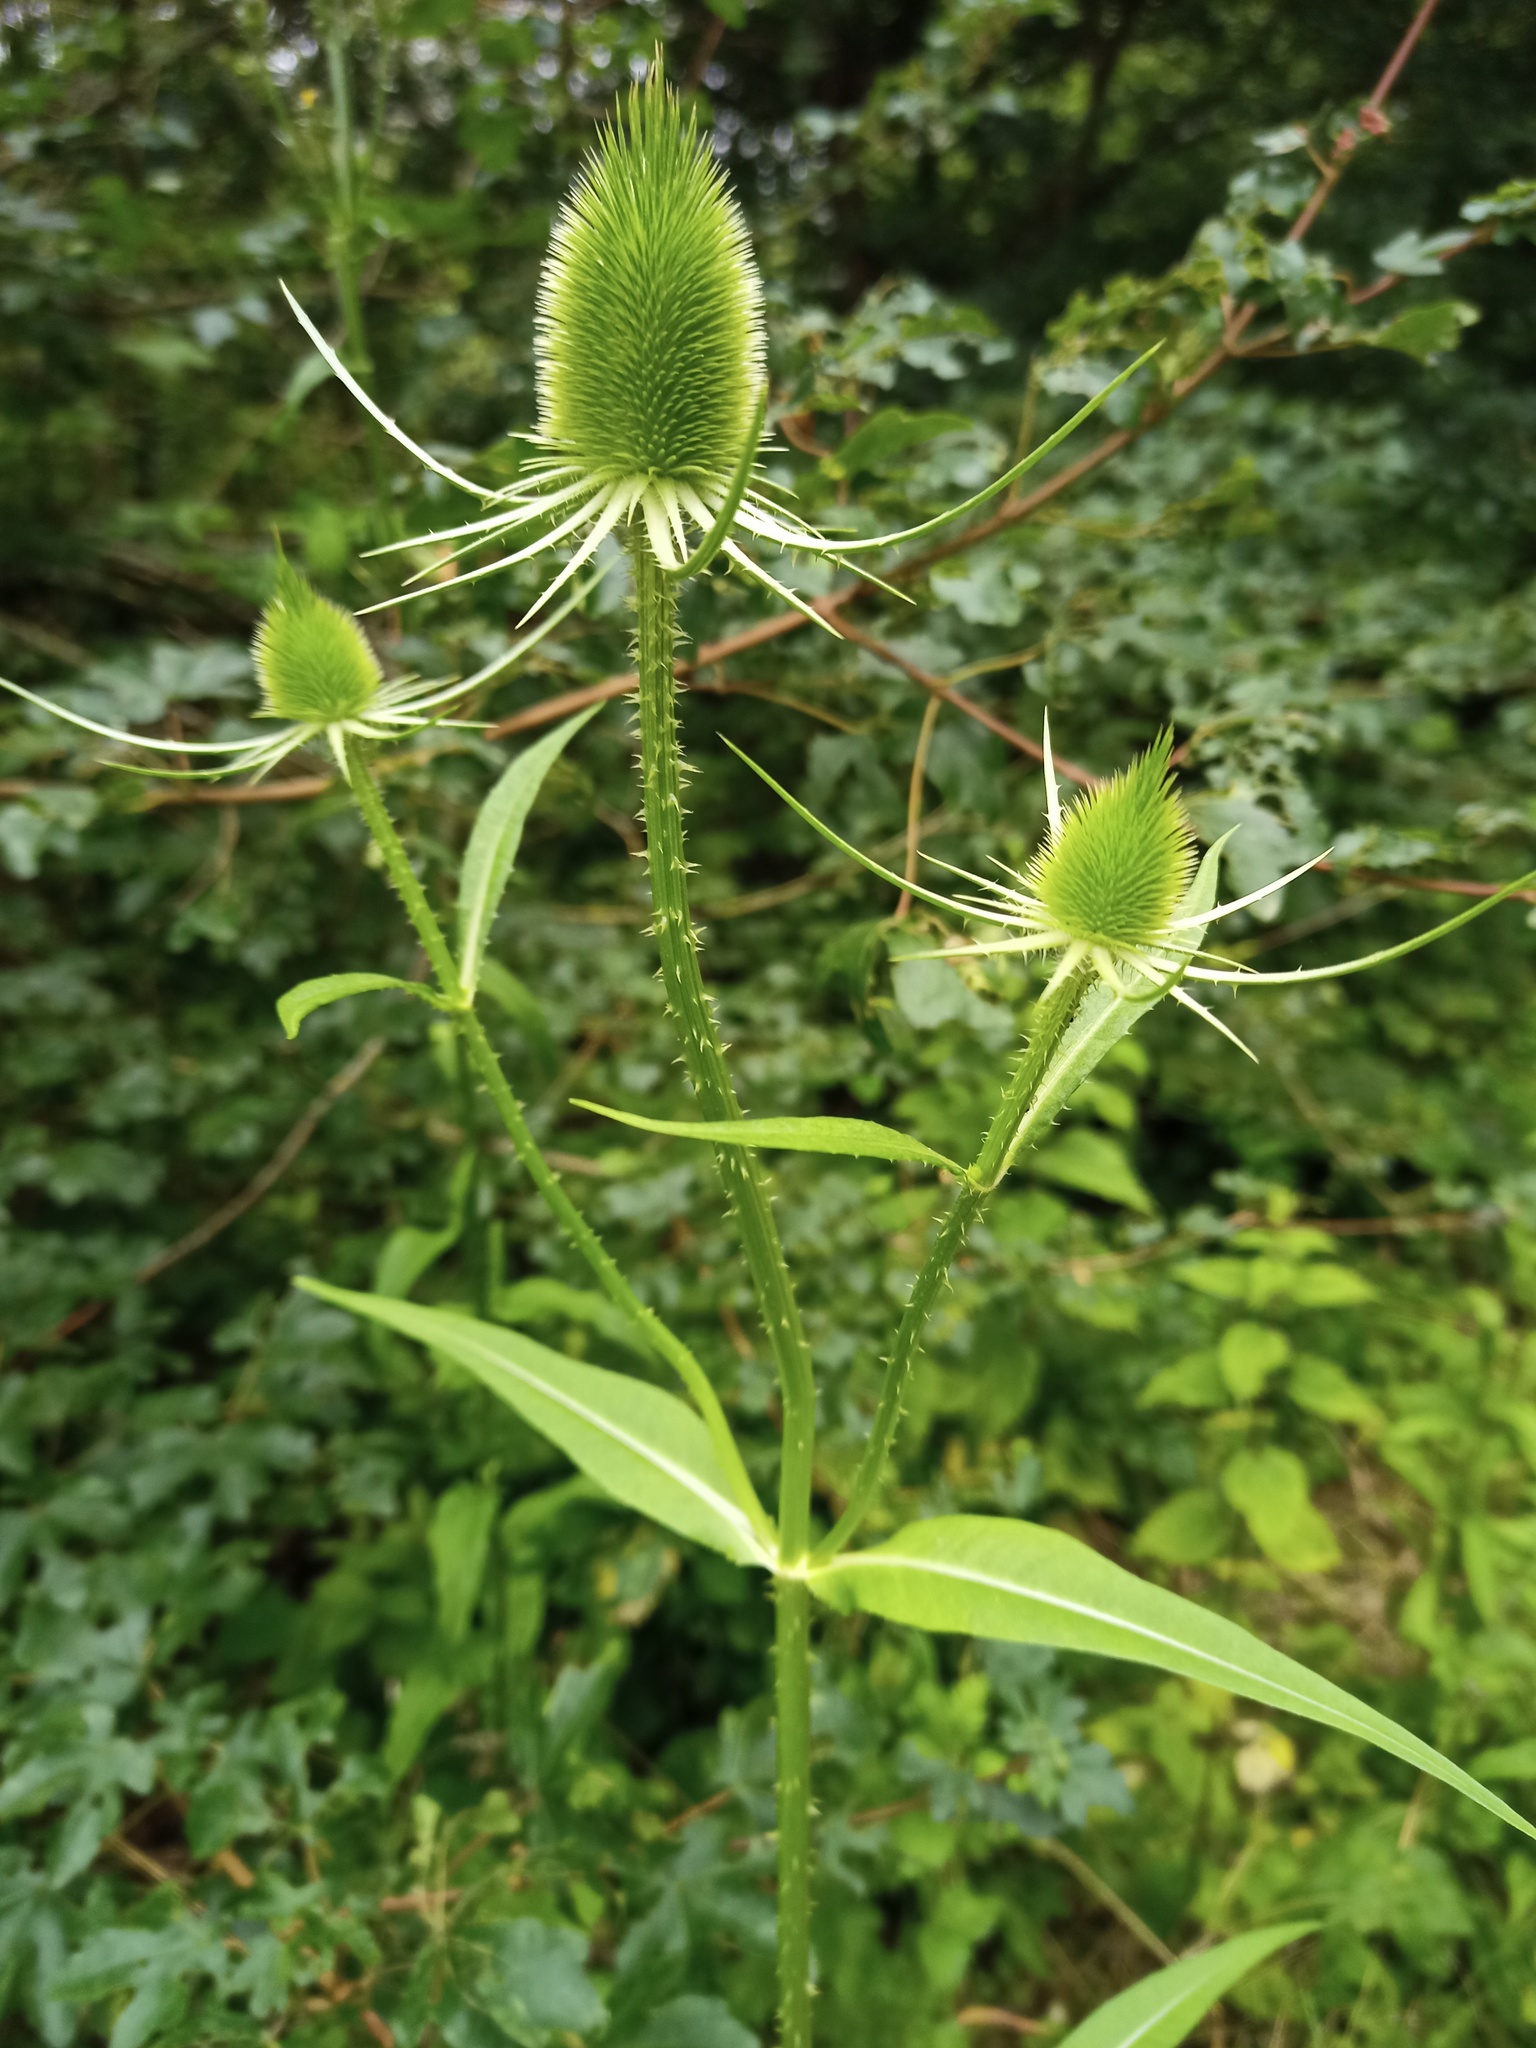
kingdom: Plantae
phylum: Tracheophyta
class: Magnoliopsida
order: Dipsacales
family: Caprifoliaceae
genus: Dipsacus
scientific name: Dipsacus fullonum
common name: Teasel
